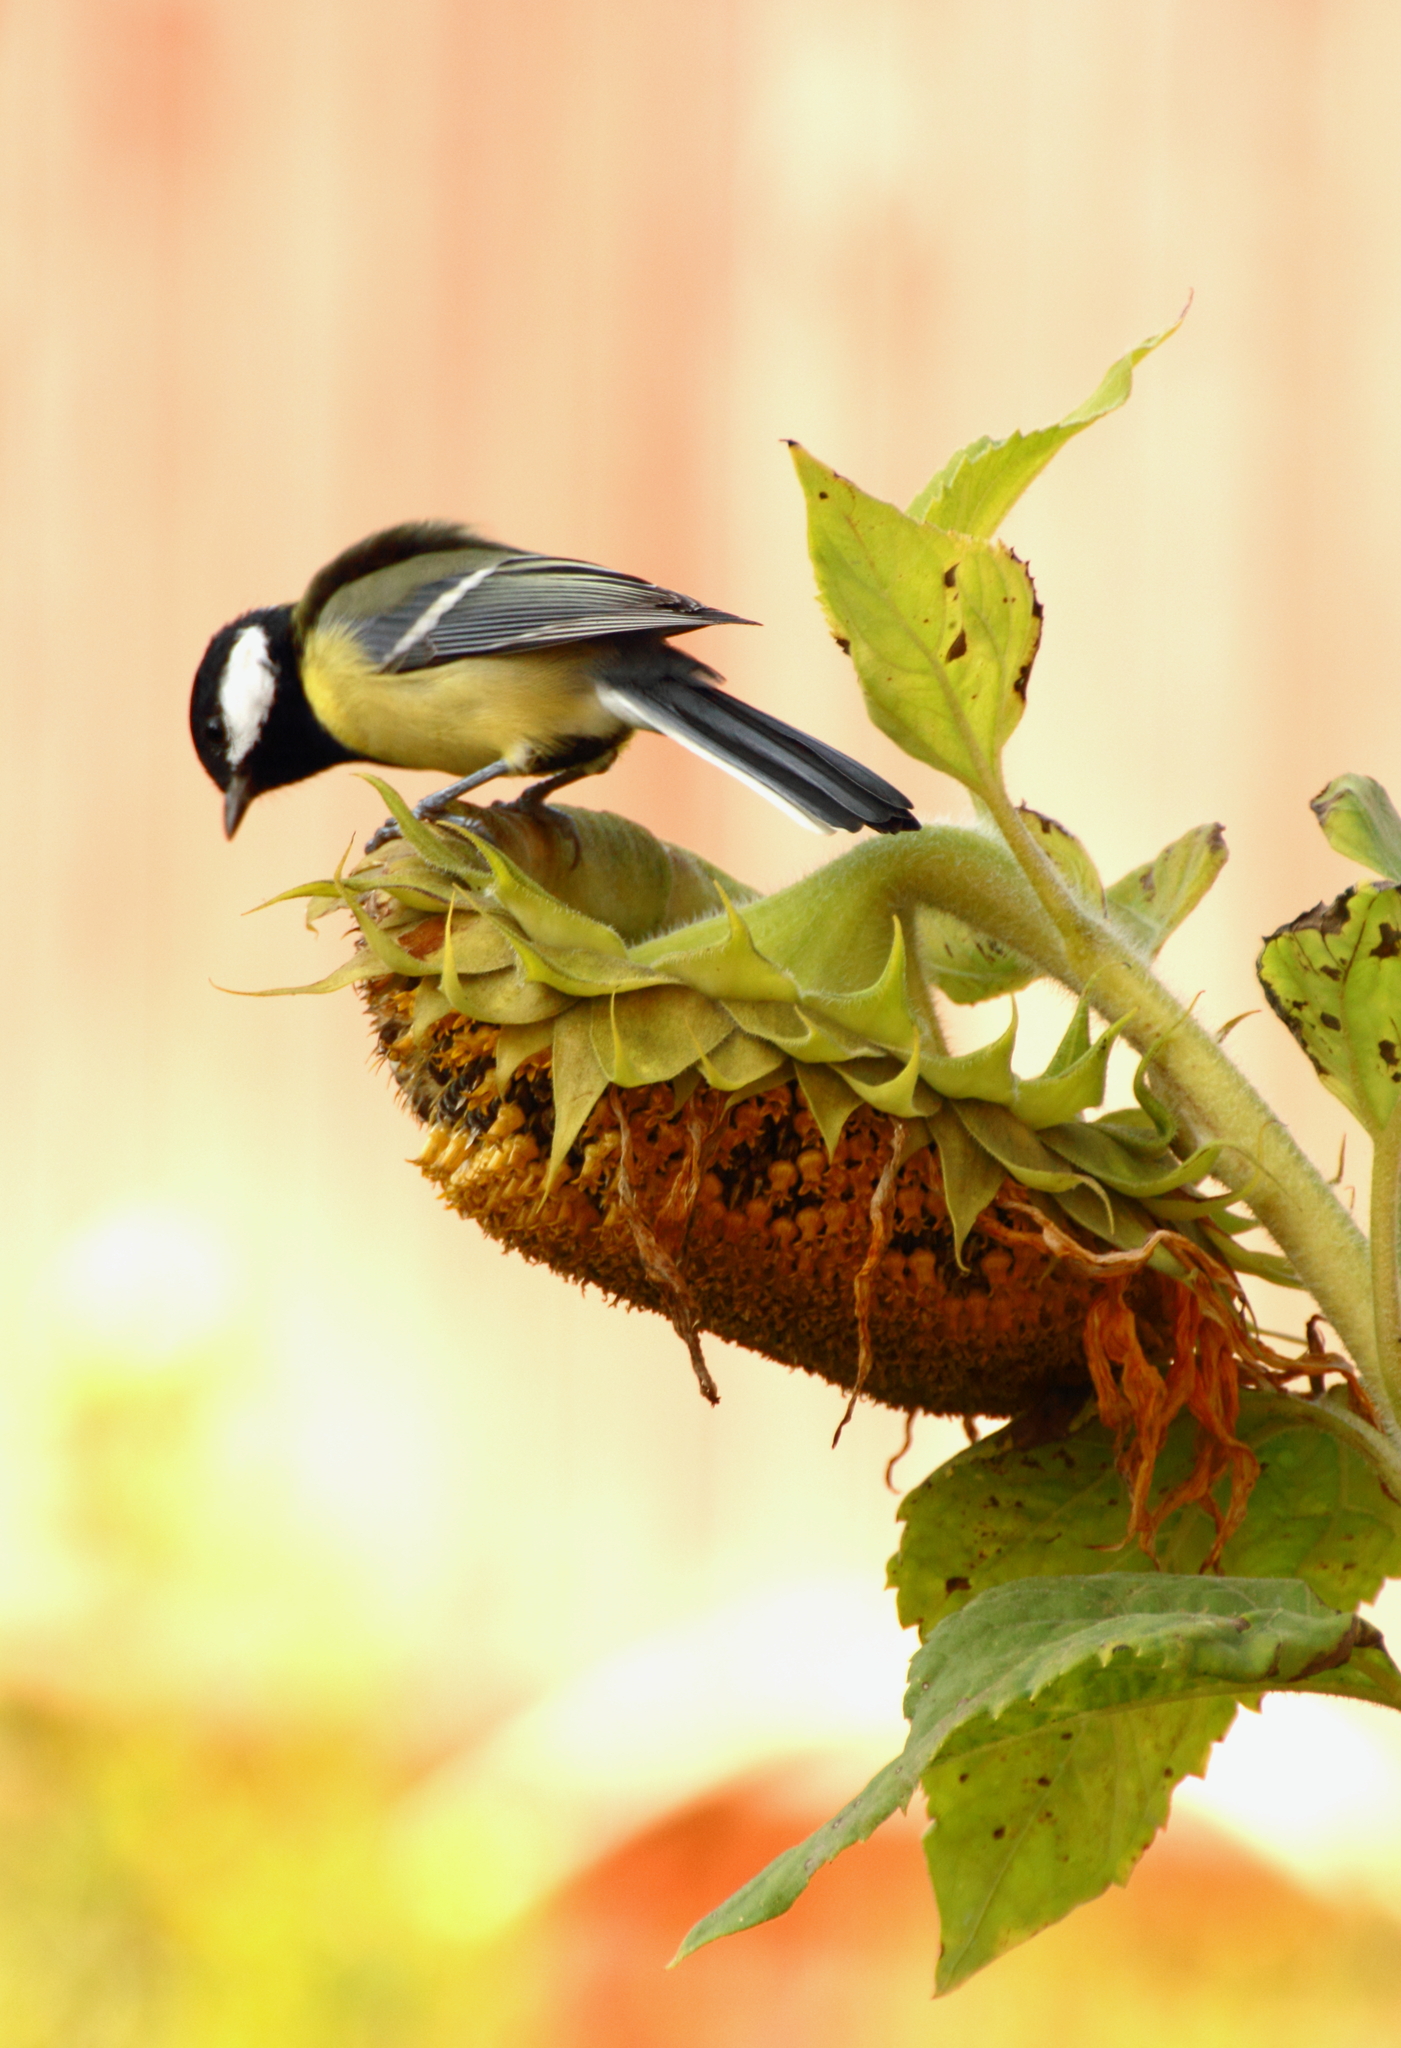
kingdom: Animalia
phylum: Chordata
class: Aves
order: Passeriformes
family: Paridae
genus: Parus
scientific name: Parus major
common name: Great tit
